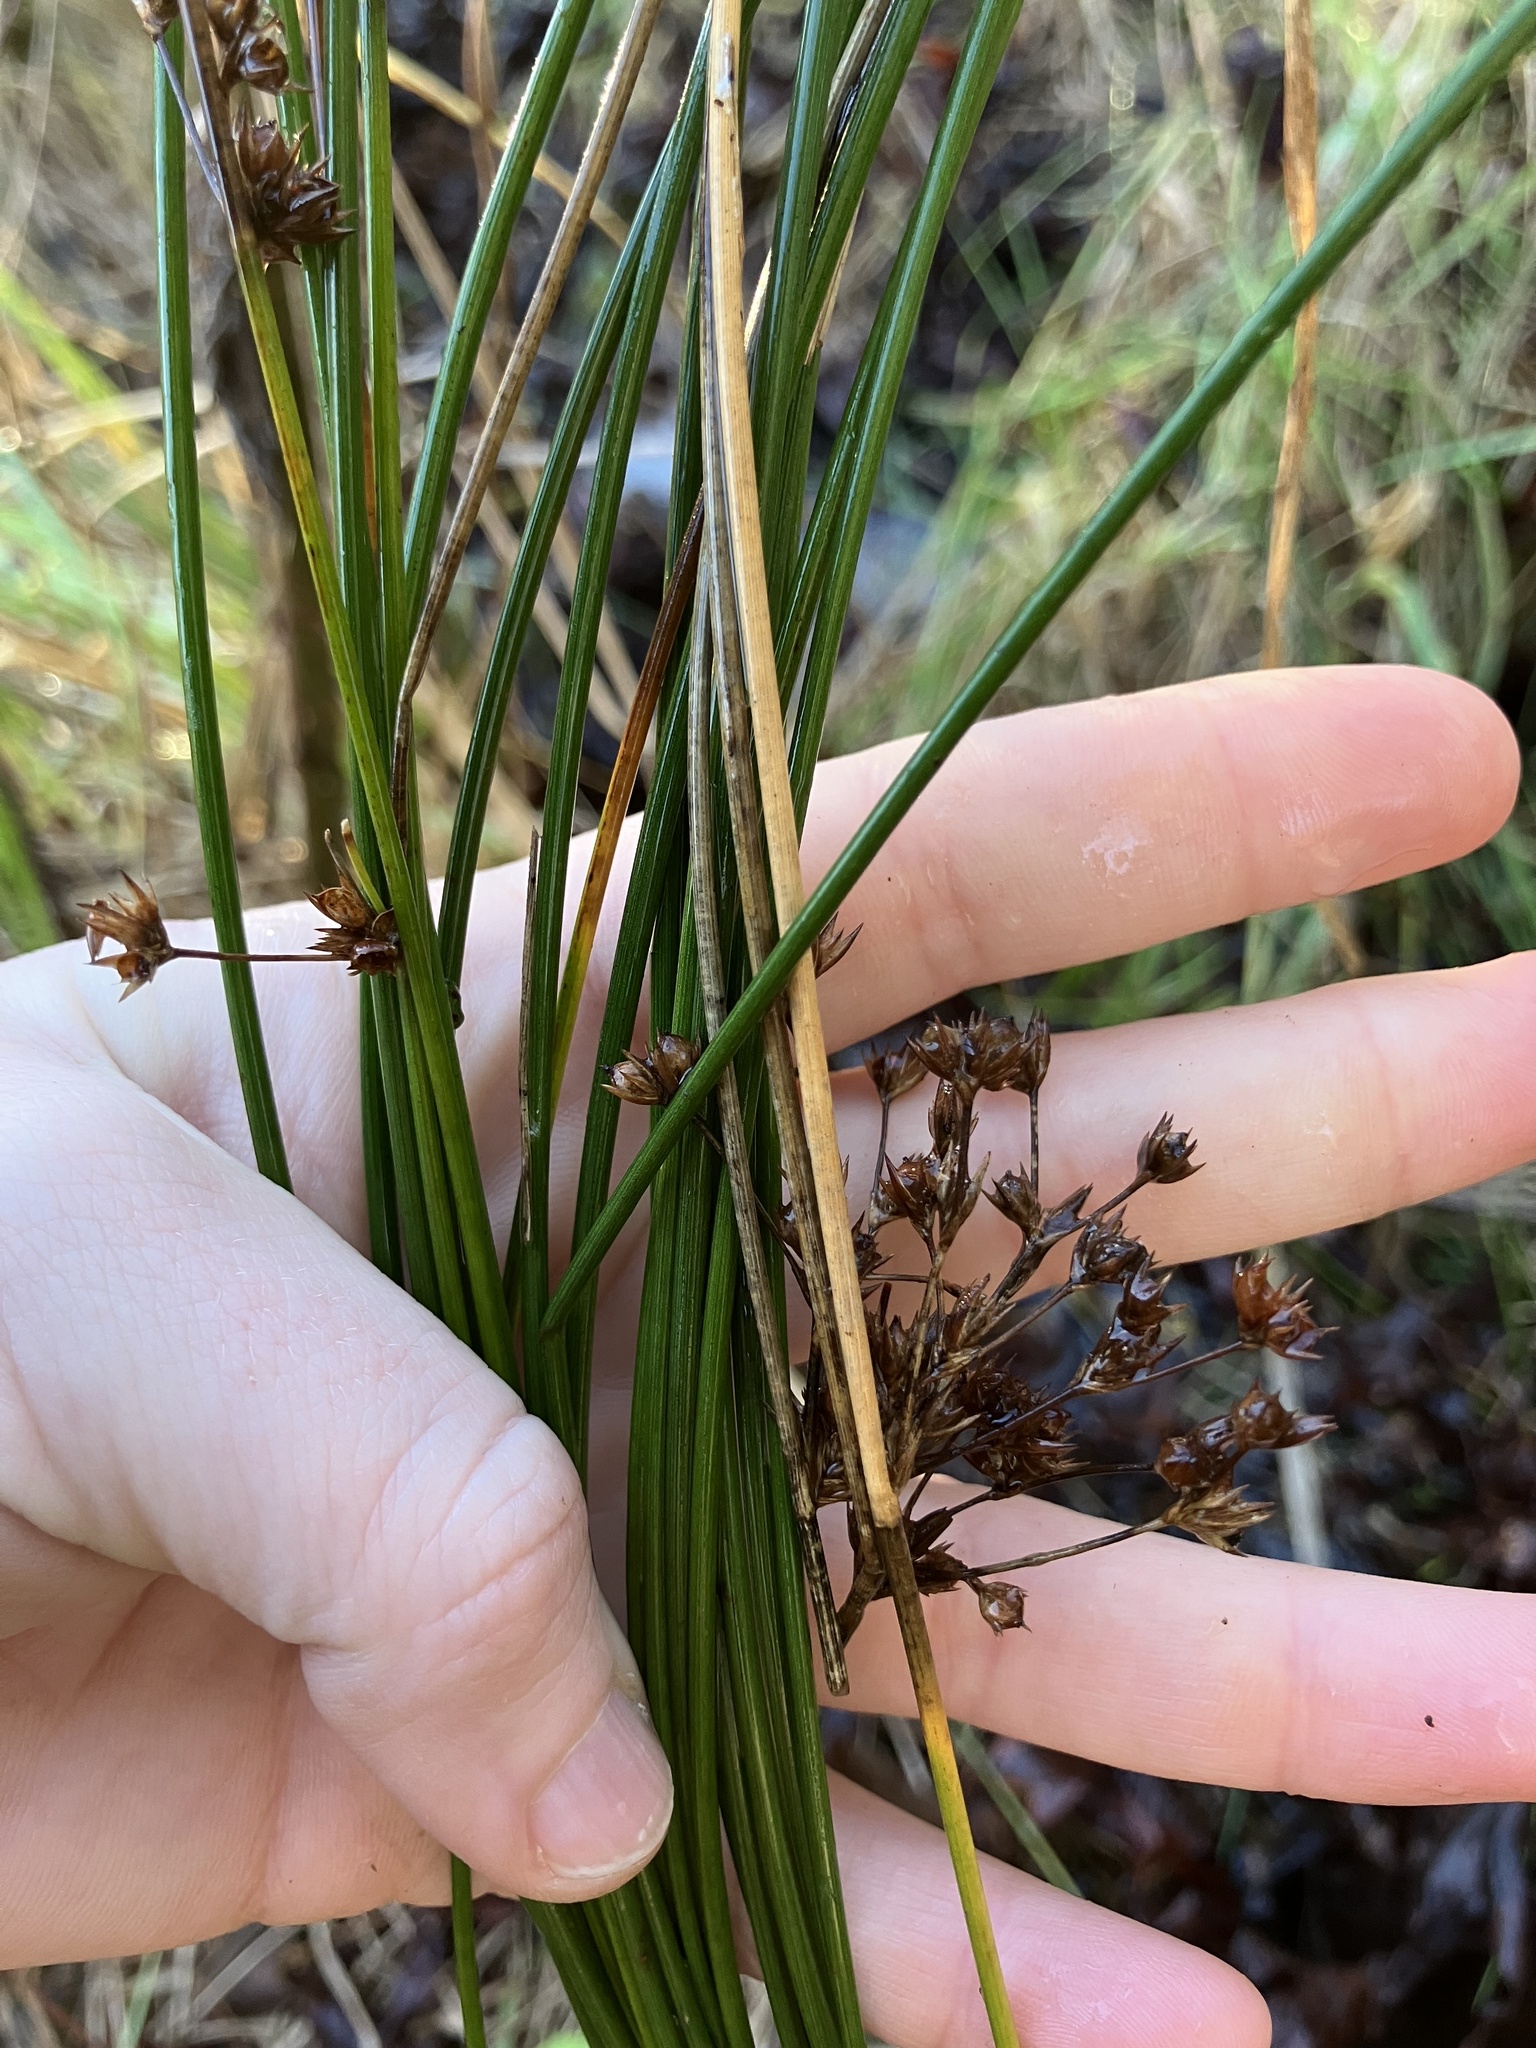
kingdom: Plantae
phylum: Tracheophyta
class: Liliopsida
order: Poales
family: Juncaceae
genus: Juncus
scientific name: Juncus coriaceus
